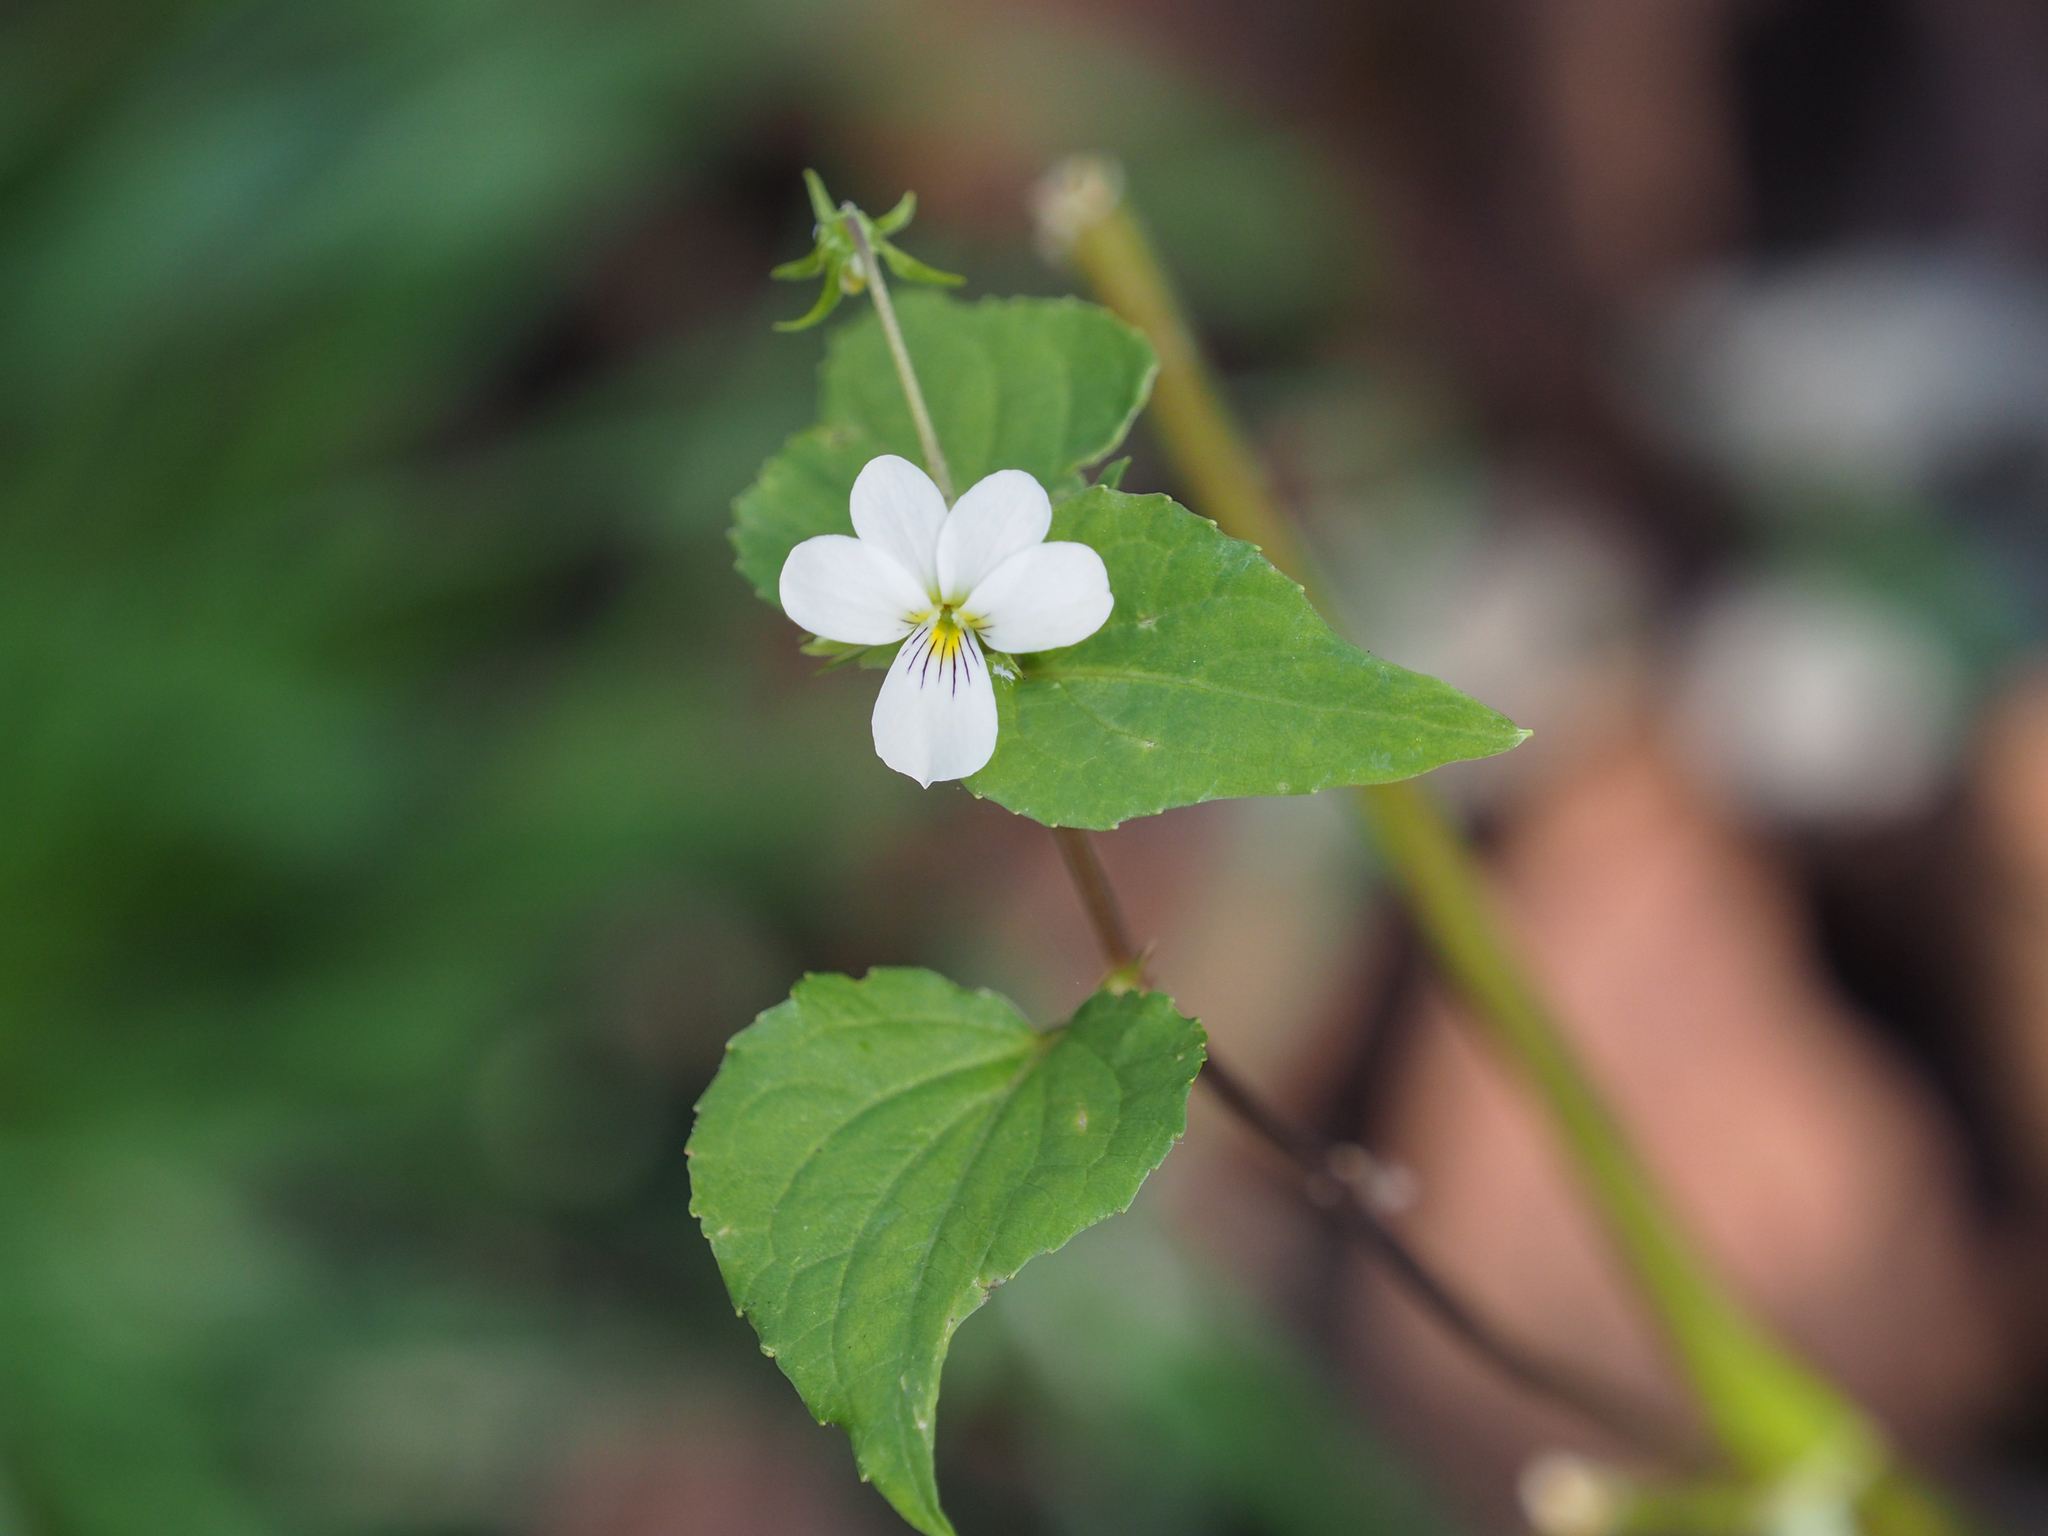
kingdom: Plantae
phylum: Tracheophyta
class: Magnoliopsida
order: Malpighiales
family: Violaceae
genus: Viola
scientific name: Viola canadensis
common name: Canada violet
